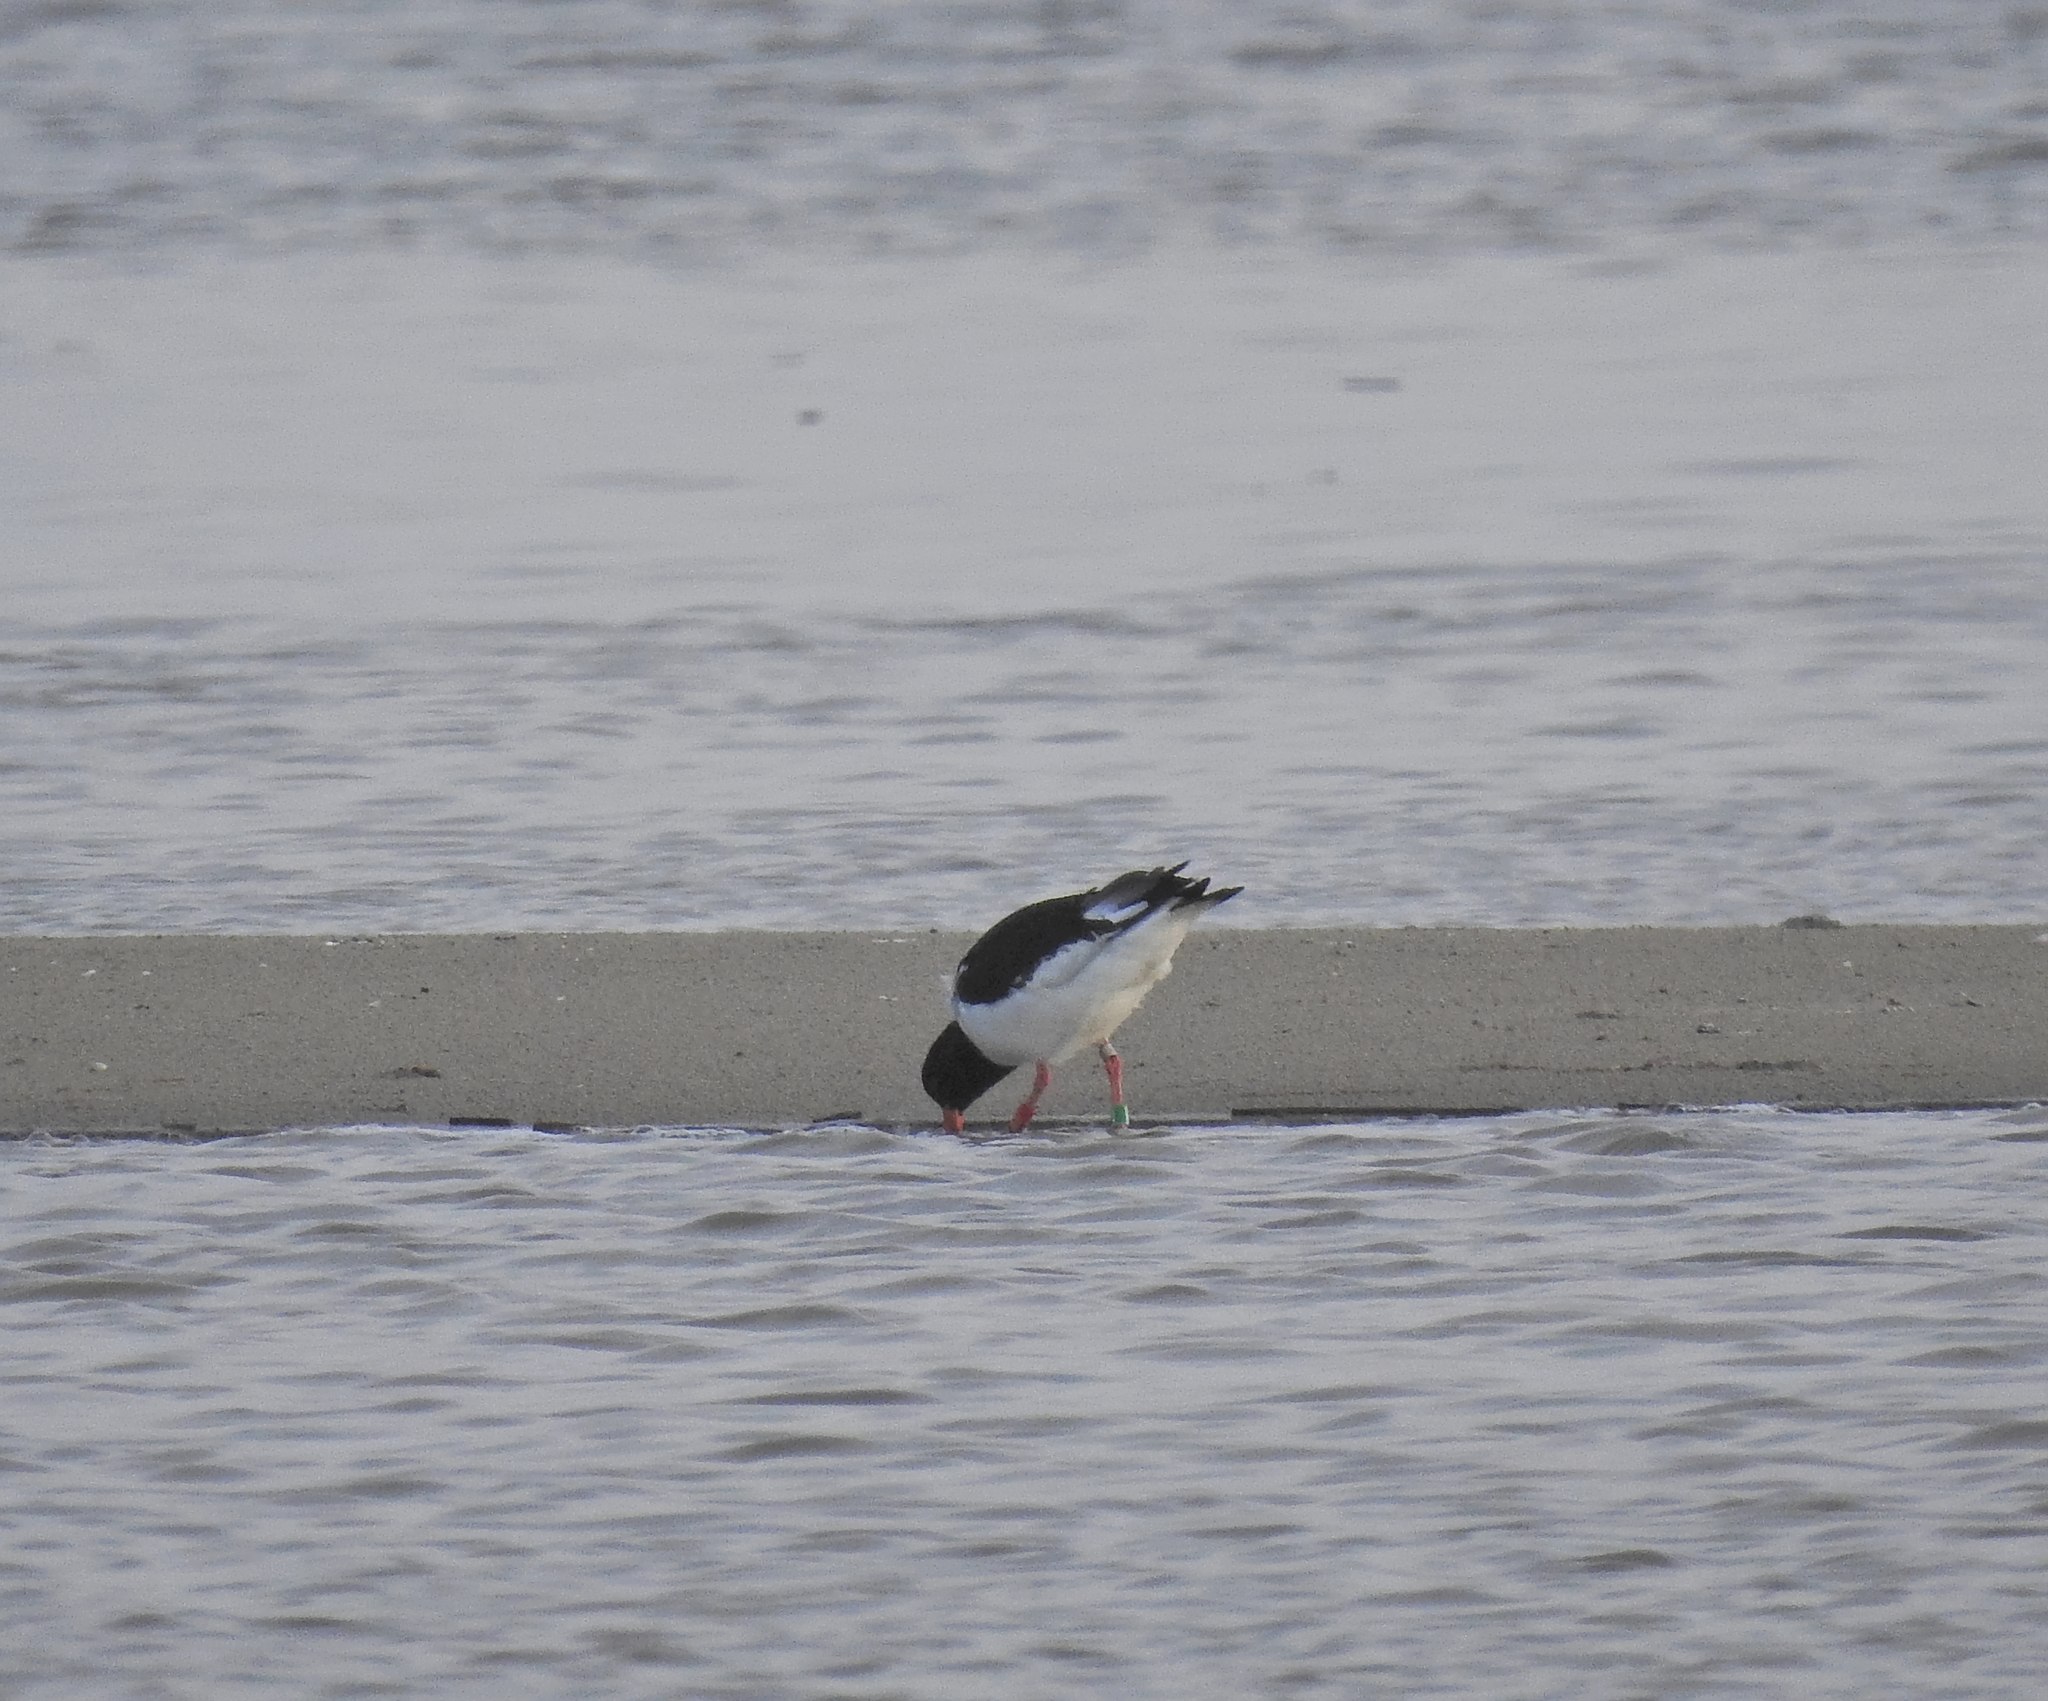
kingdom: Animalia
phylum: Chordata
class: Aves
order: Charadriiformes
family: Haematopodidae
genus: Haematopus
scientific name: Haematopus ostralegus
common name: Eurasian oystercatcher
